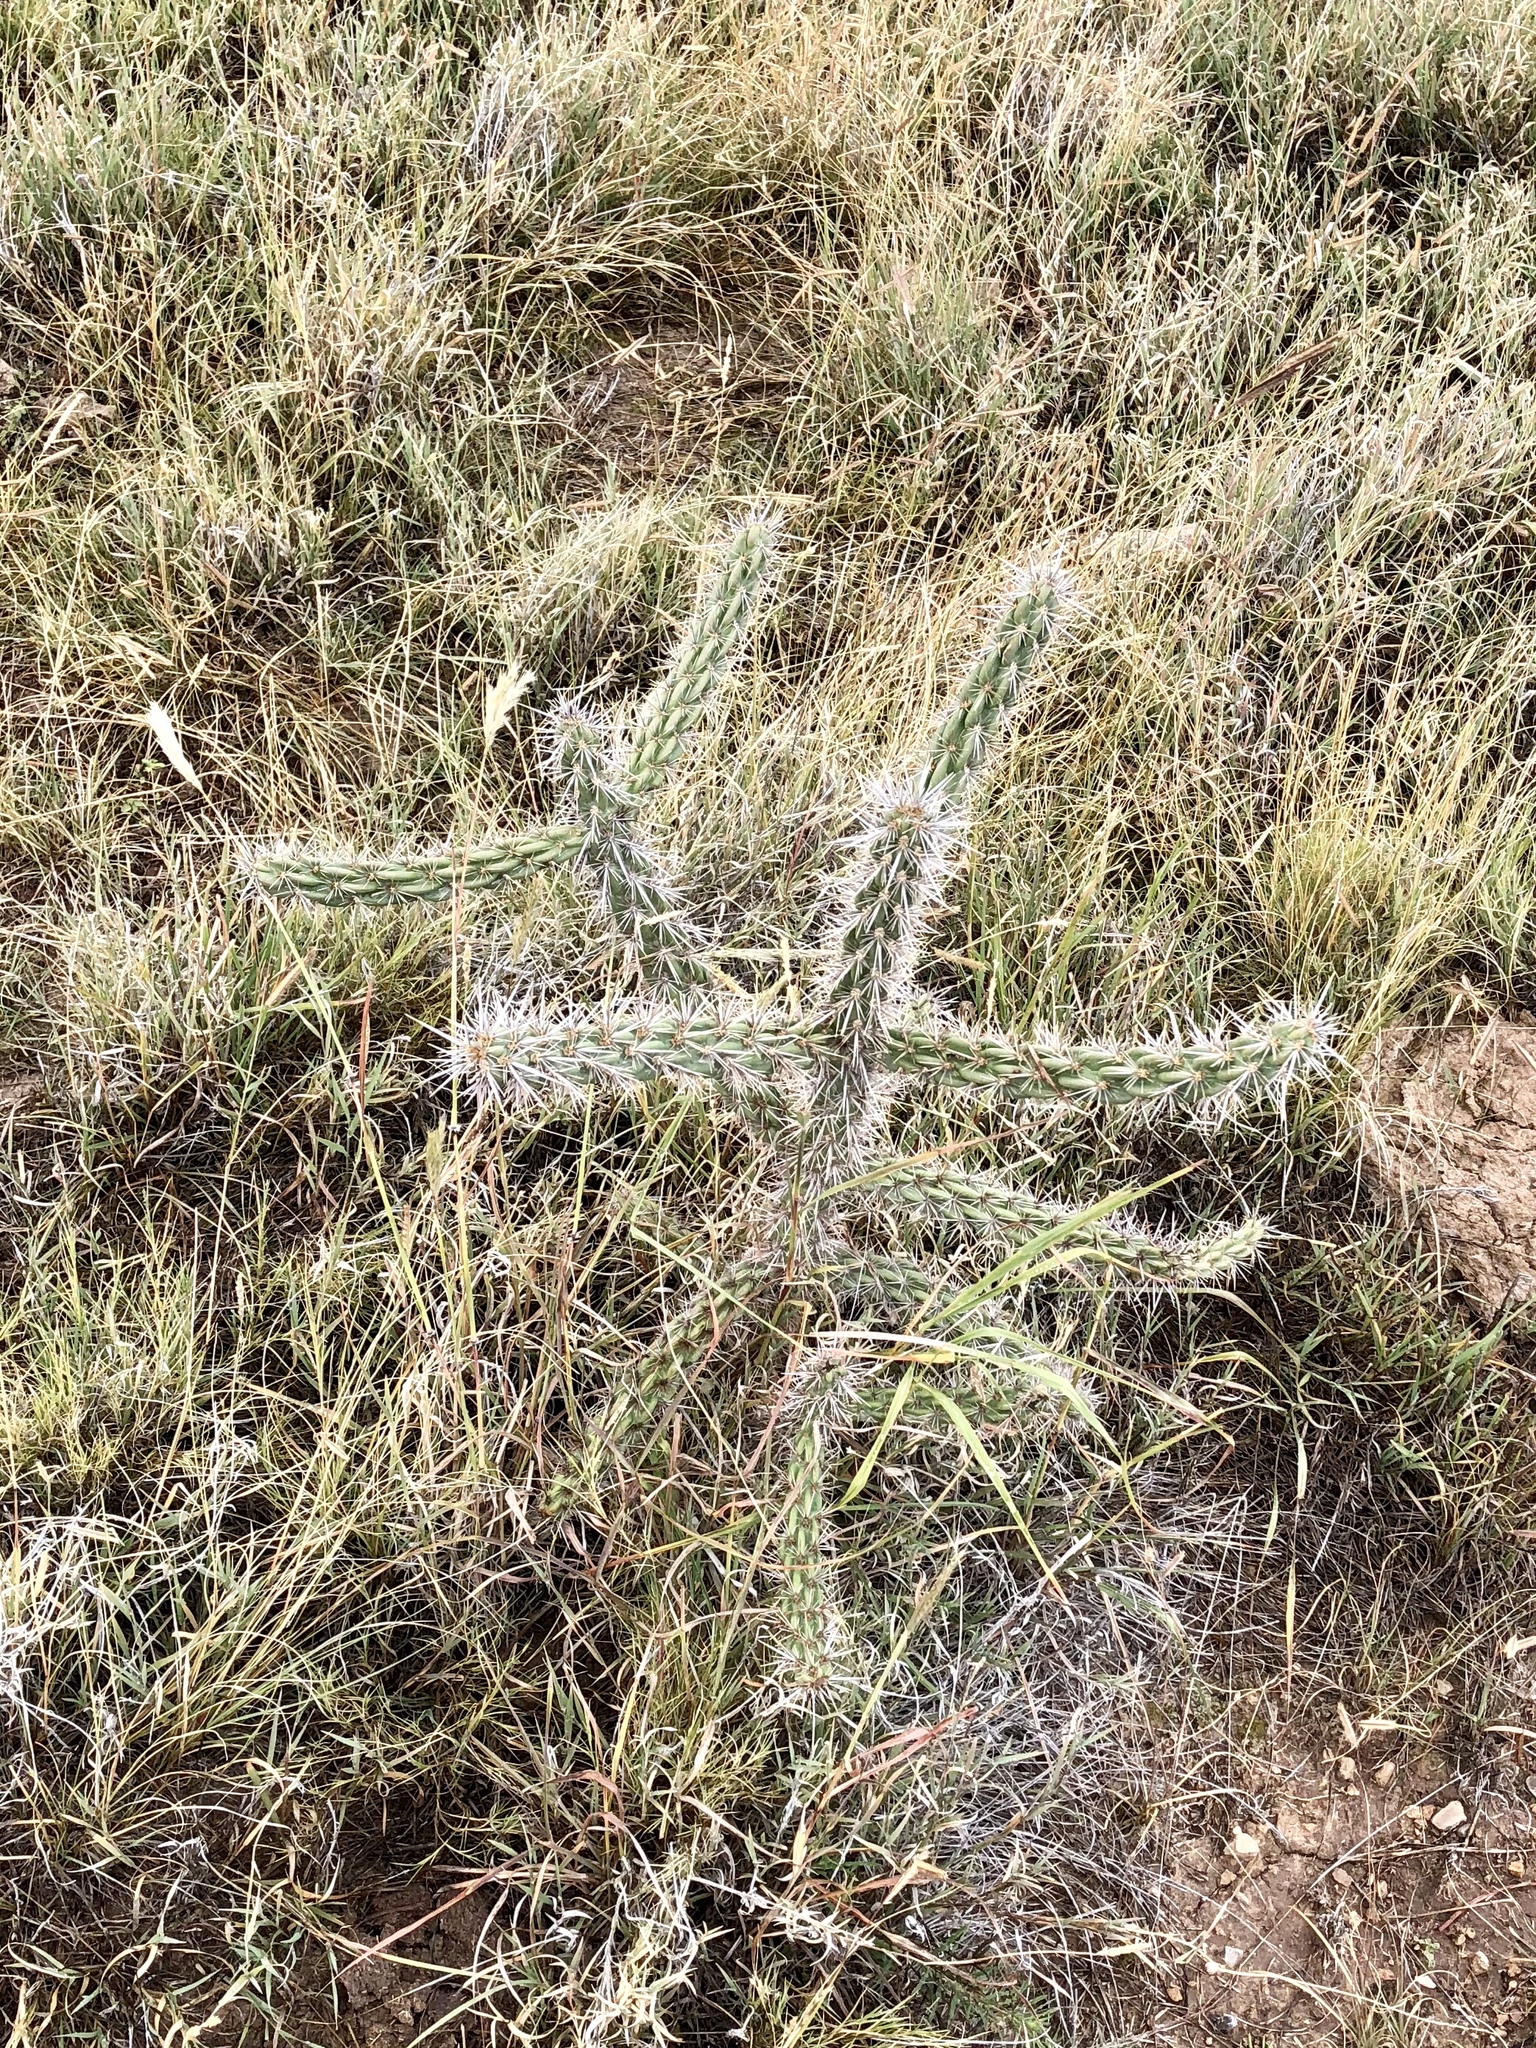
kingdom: Plantae
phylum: Tracheophyta
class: Magnoliopsida
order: Caryophyllales
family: Cactaceae
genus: Cylindropuntia
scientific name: Cylindropuntia imbricata
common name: Candelabrum cactus
